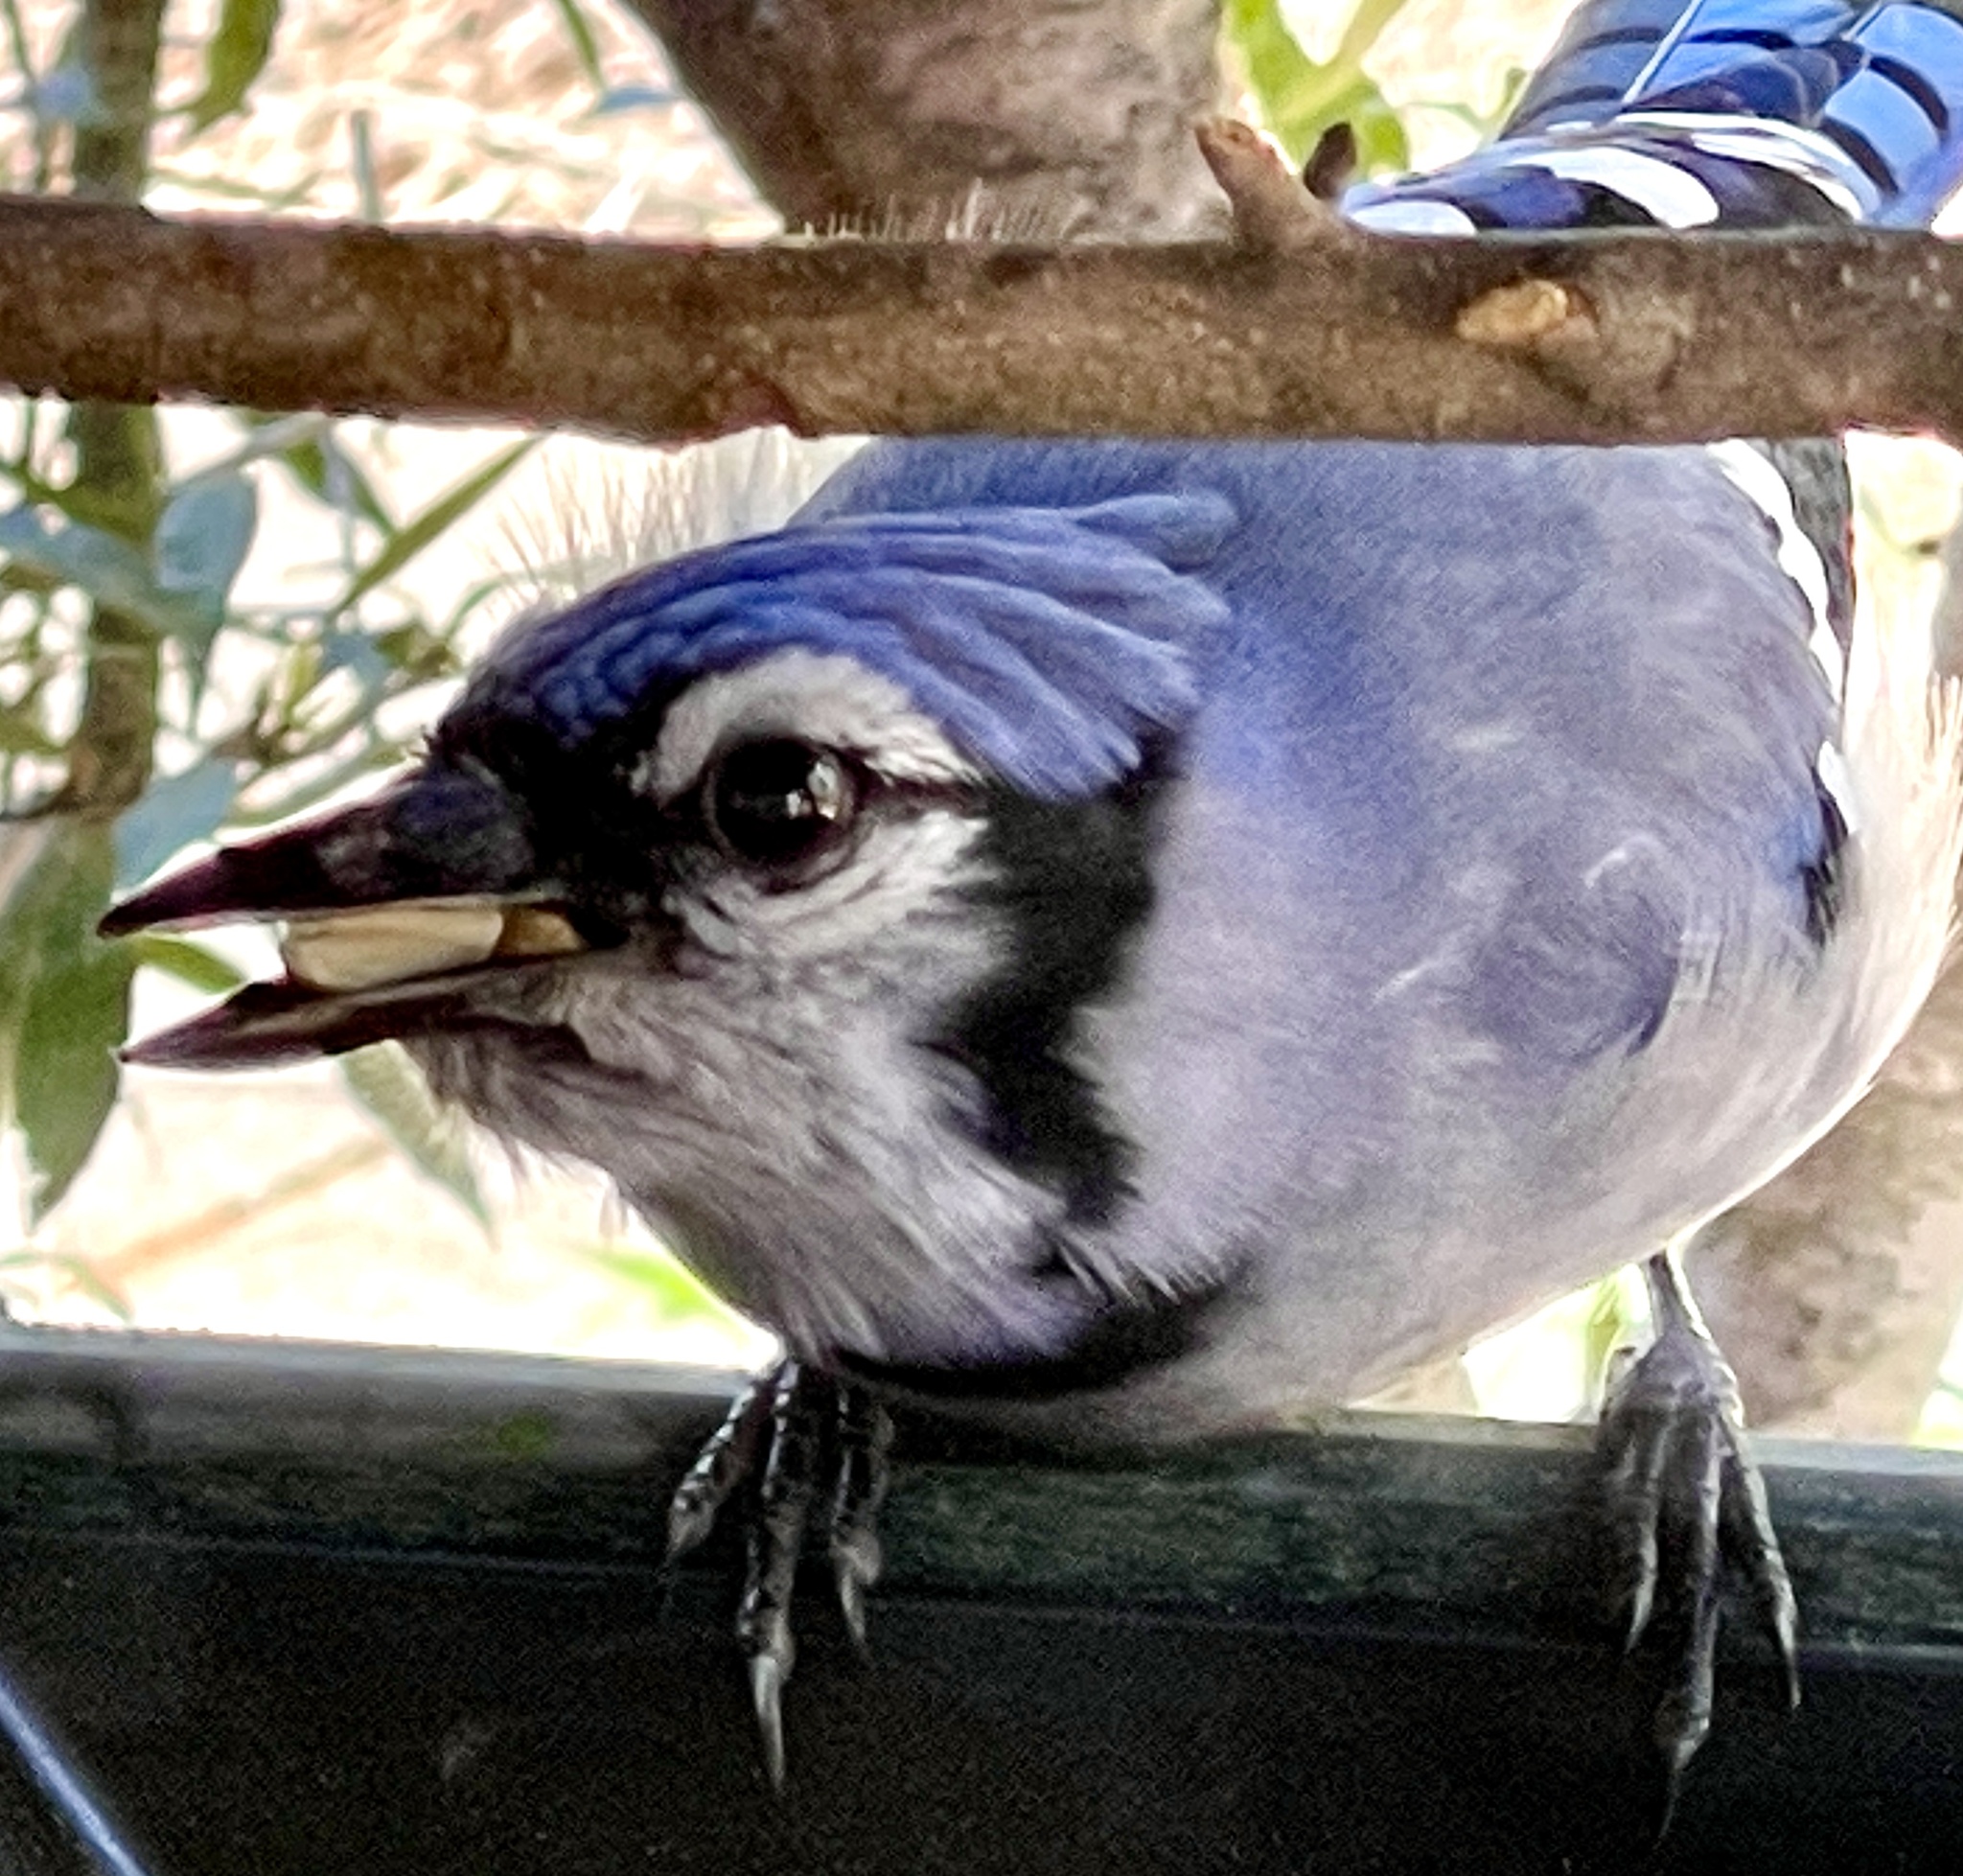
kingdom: Animalia
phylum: Chordata
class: Aves
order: Passeriformes
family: Corvidae
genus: Cyanocitta
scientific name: Cyanocitta cristata
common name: Blue jay
